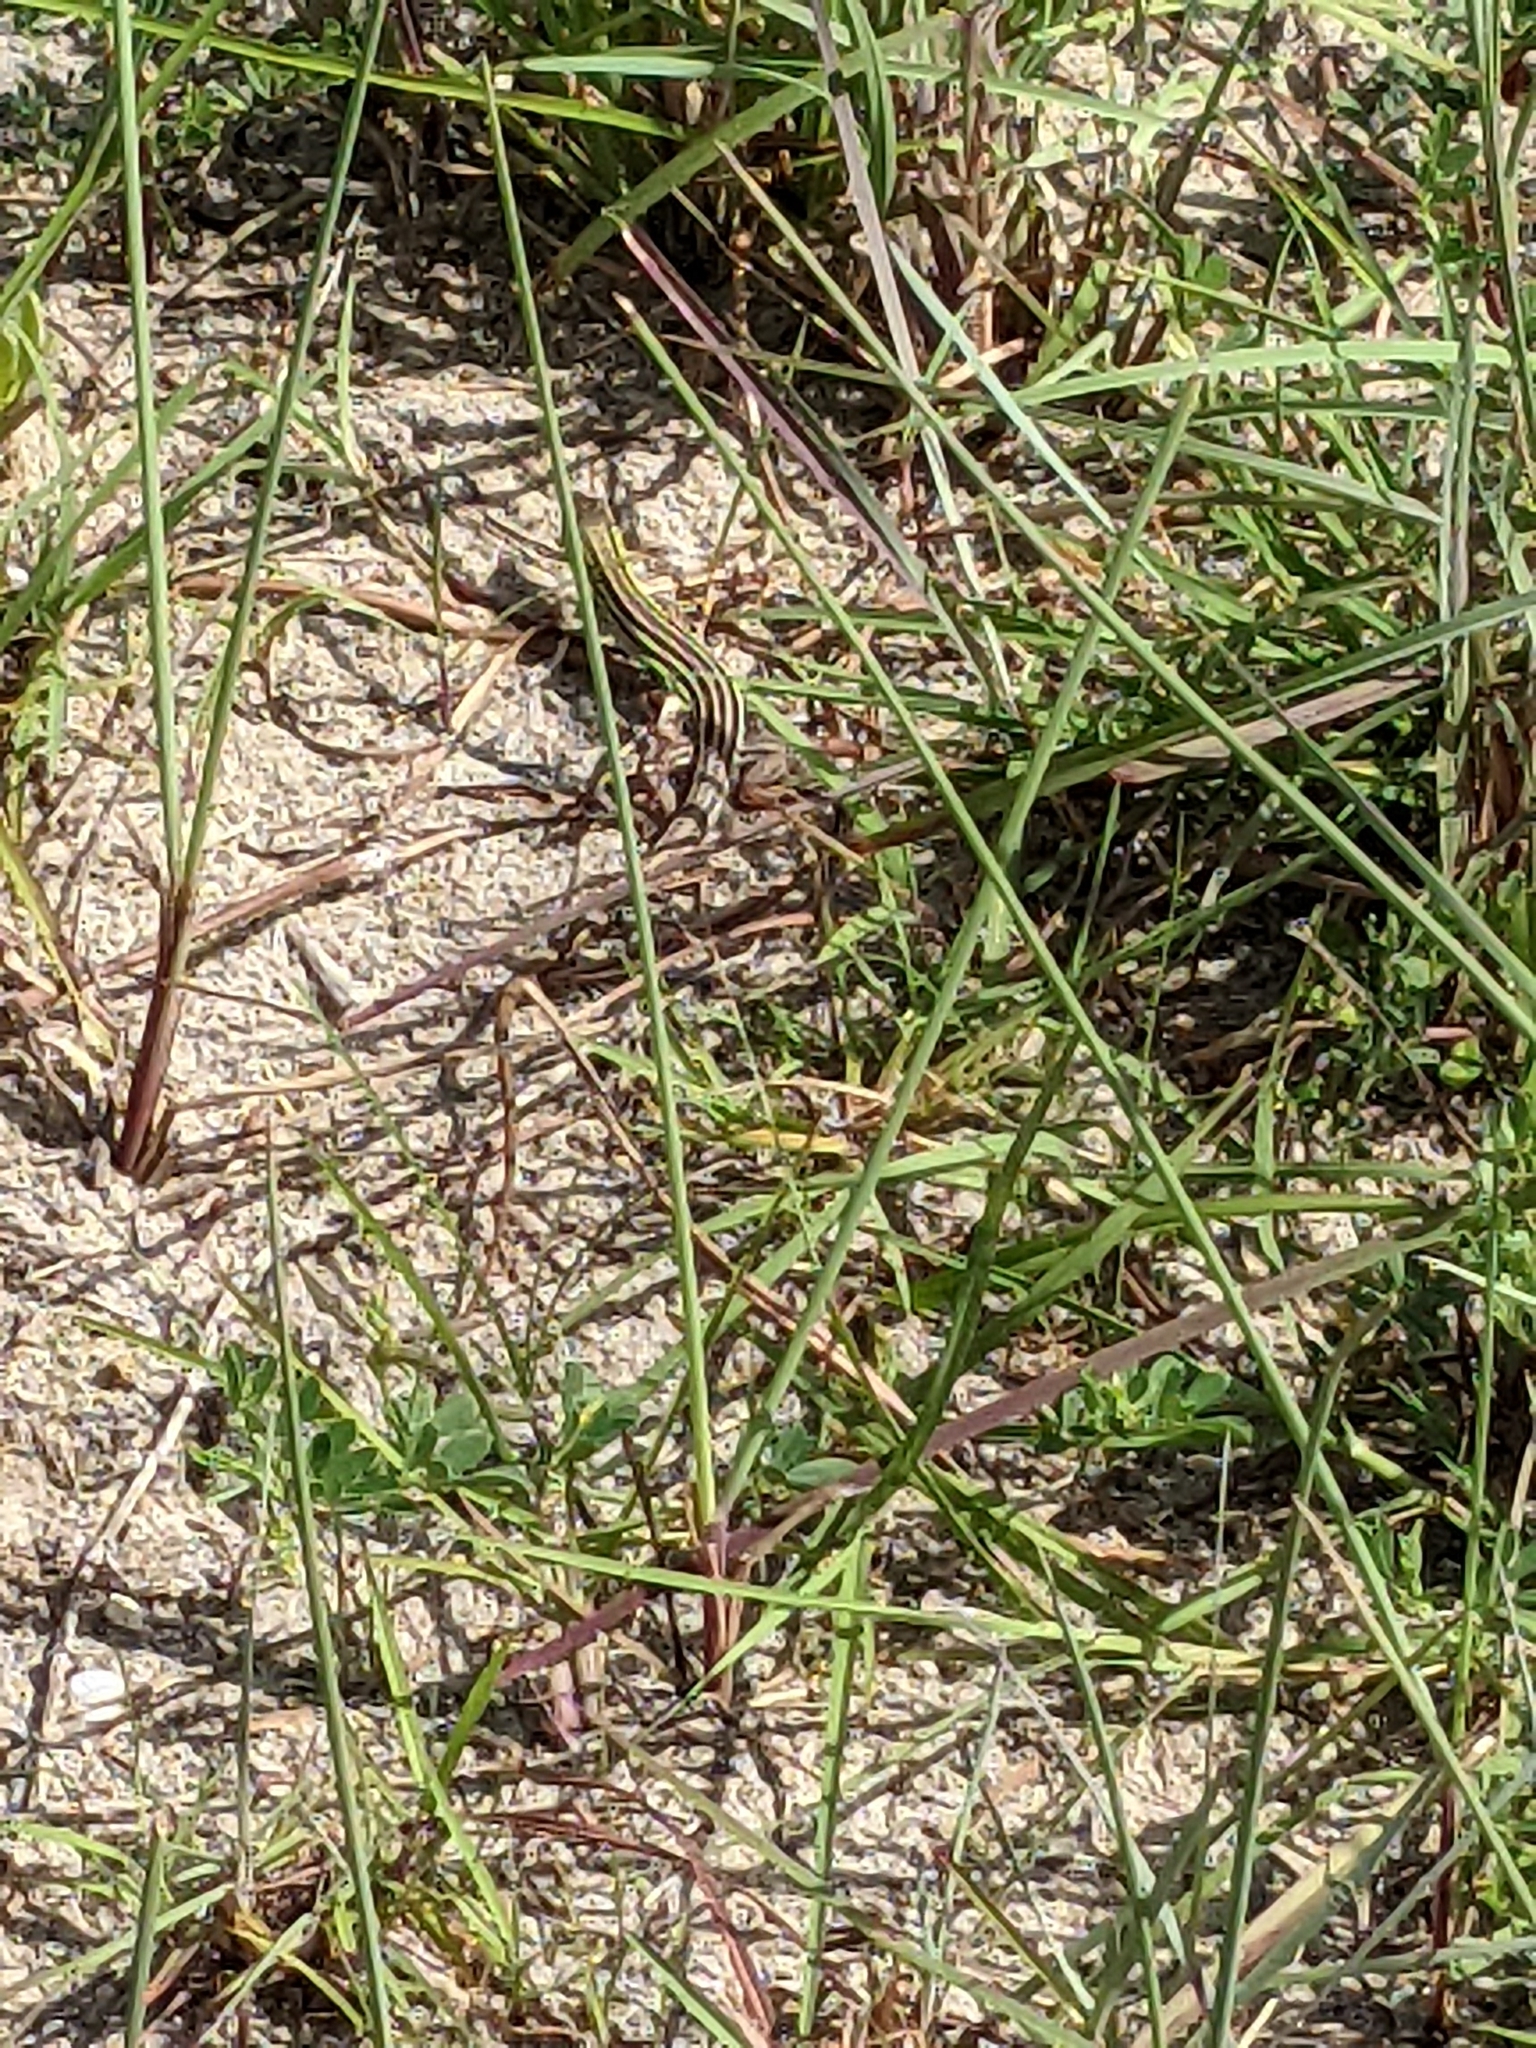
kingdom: Animalia
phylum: Chordata
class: Squamata
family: Teiidae
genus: Aspidoscelis
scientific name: Aspidoscelis sexlineatus
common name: Six-lined racerunner
